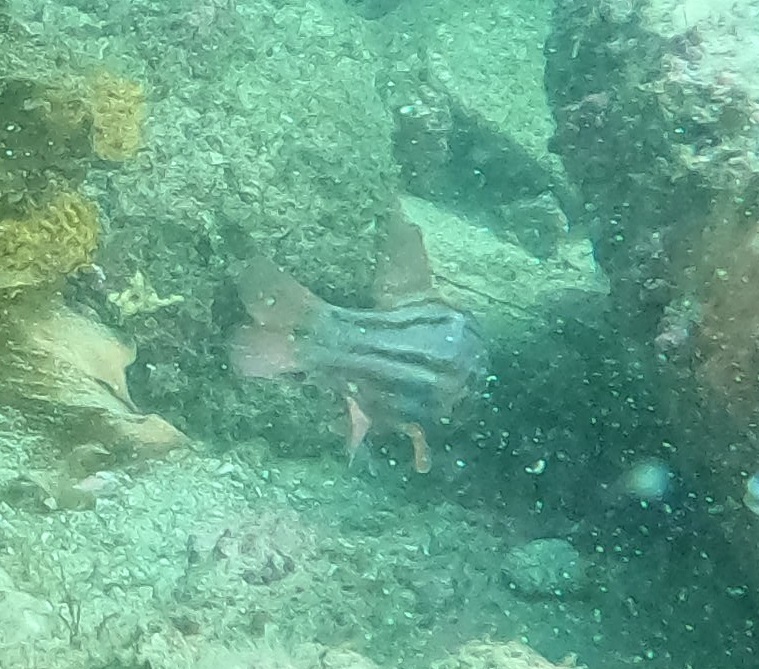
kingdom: Animalia
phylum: Chordata
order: Perciformes
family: Apogonidae
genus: Ostorhinchus
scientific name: Ostorhinchus limenus
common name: Four-banded soldierfish
